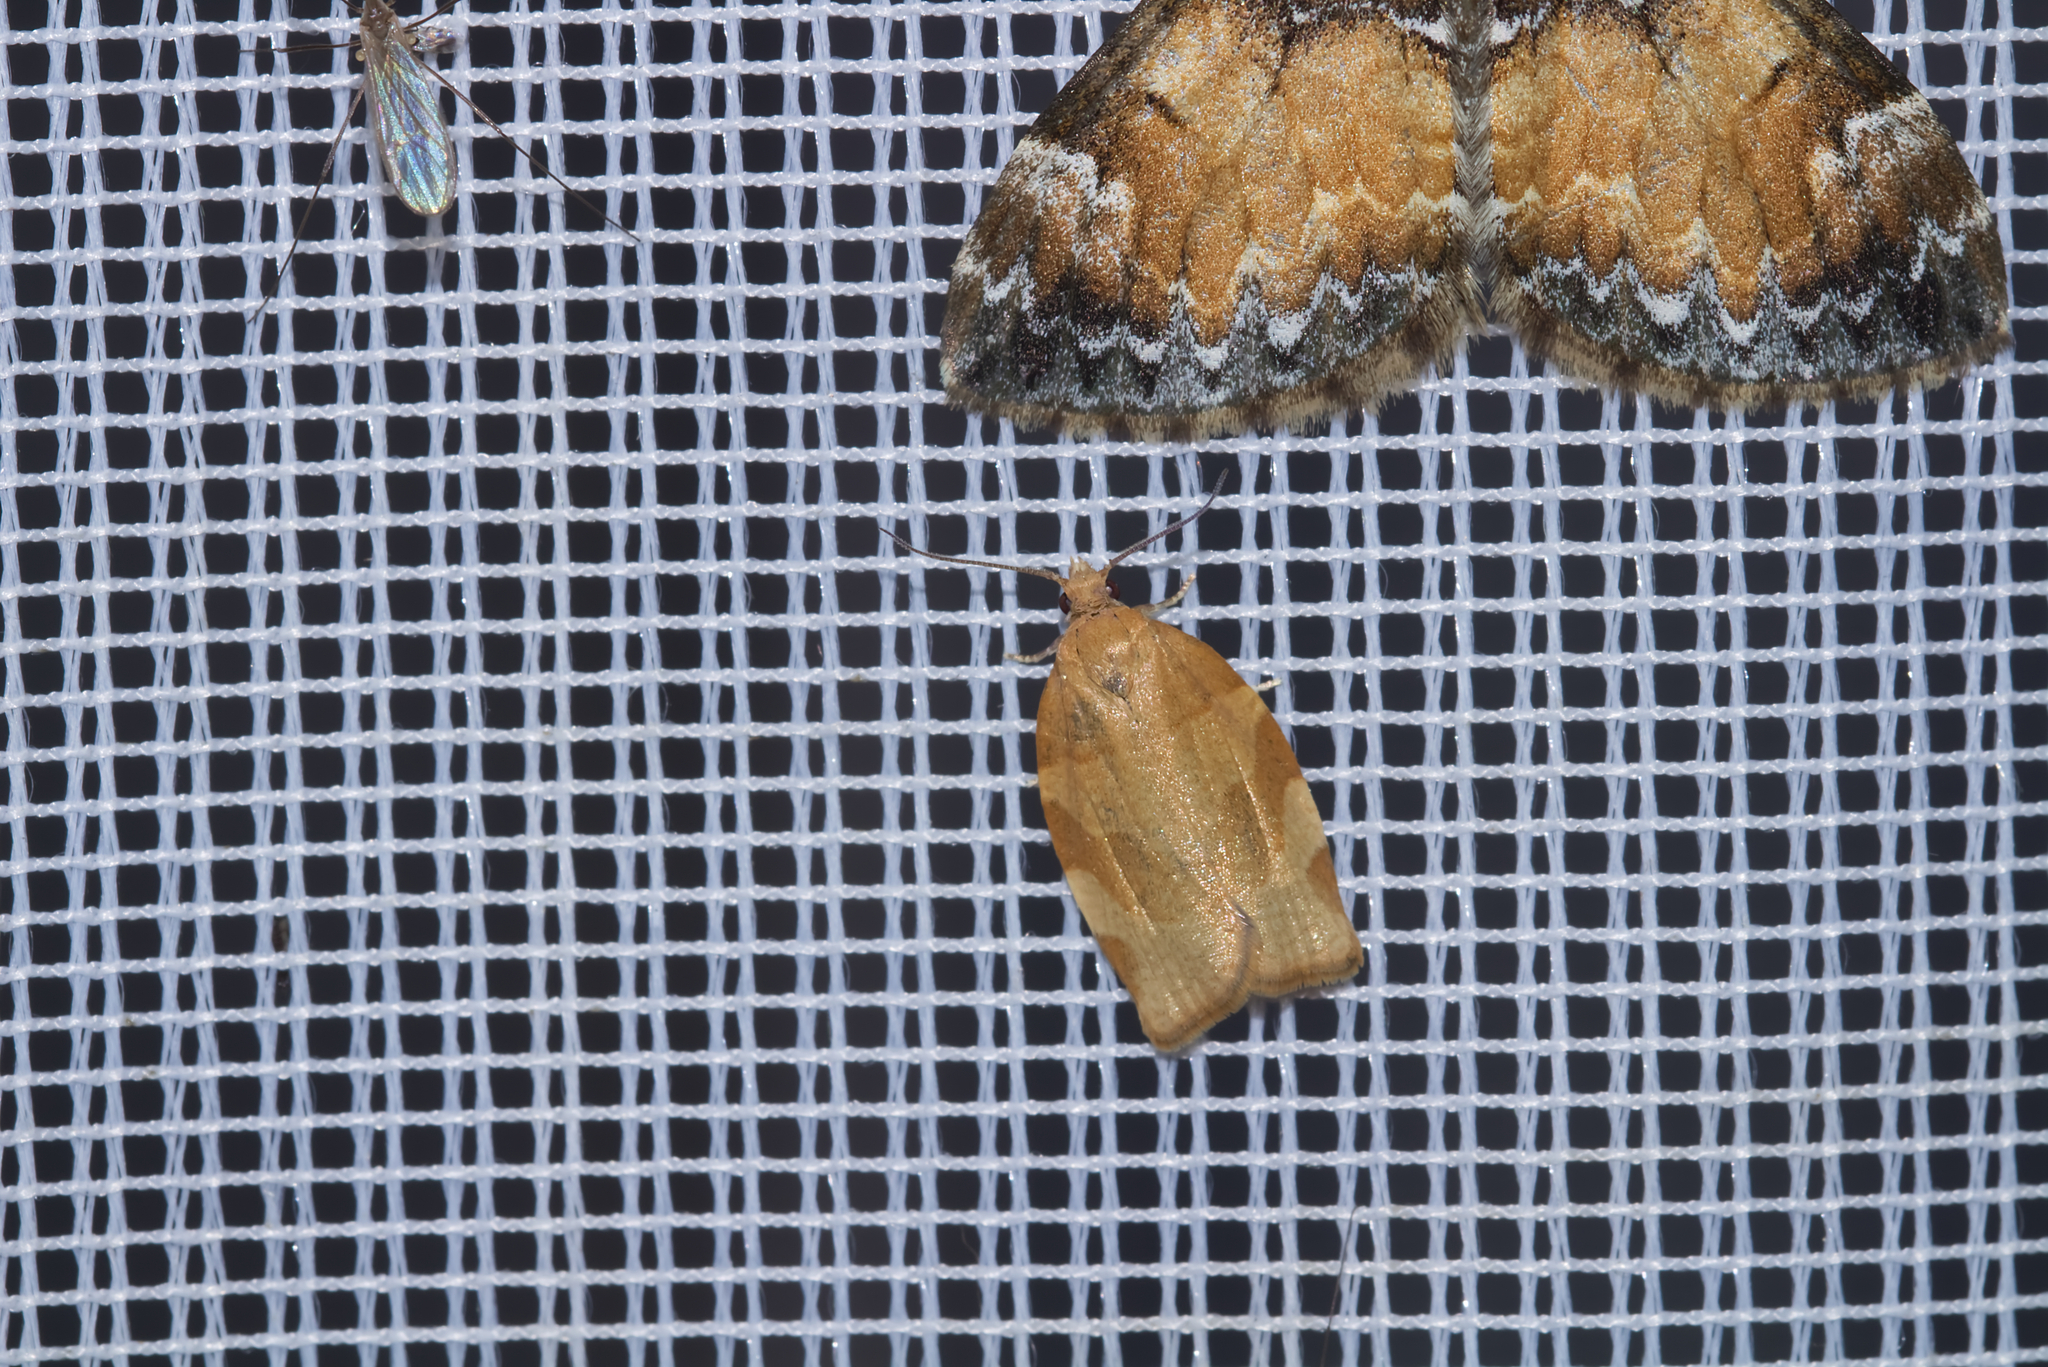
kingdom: Animalia
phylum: Arthropoda
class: Insecta
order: Lepidoptera
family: Tortricidae
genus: Pandemis
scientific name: Pandemis cerasana
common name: Barred fruit-tree tortrix
